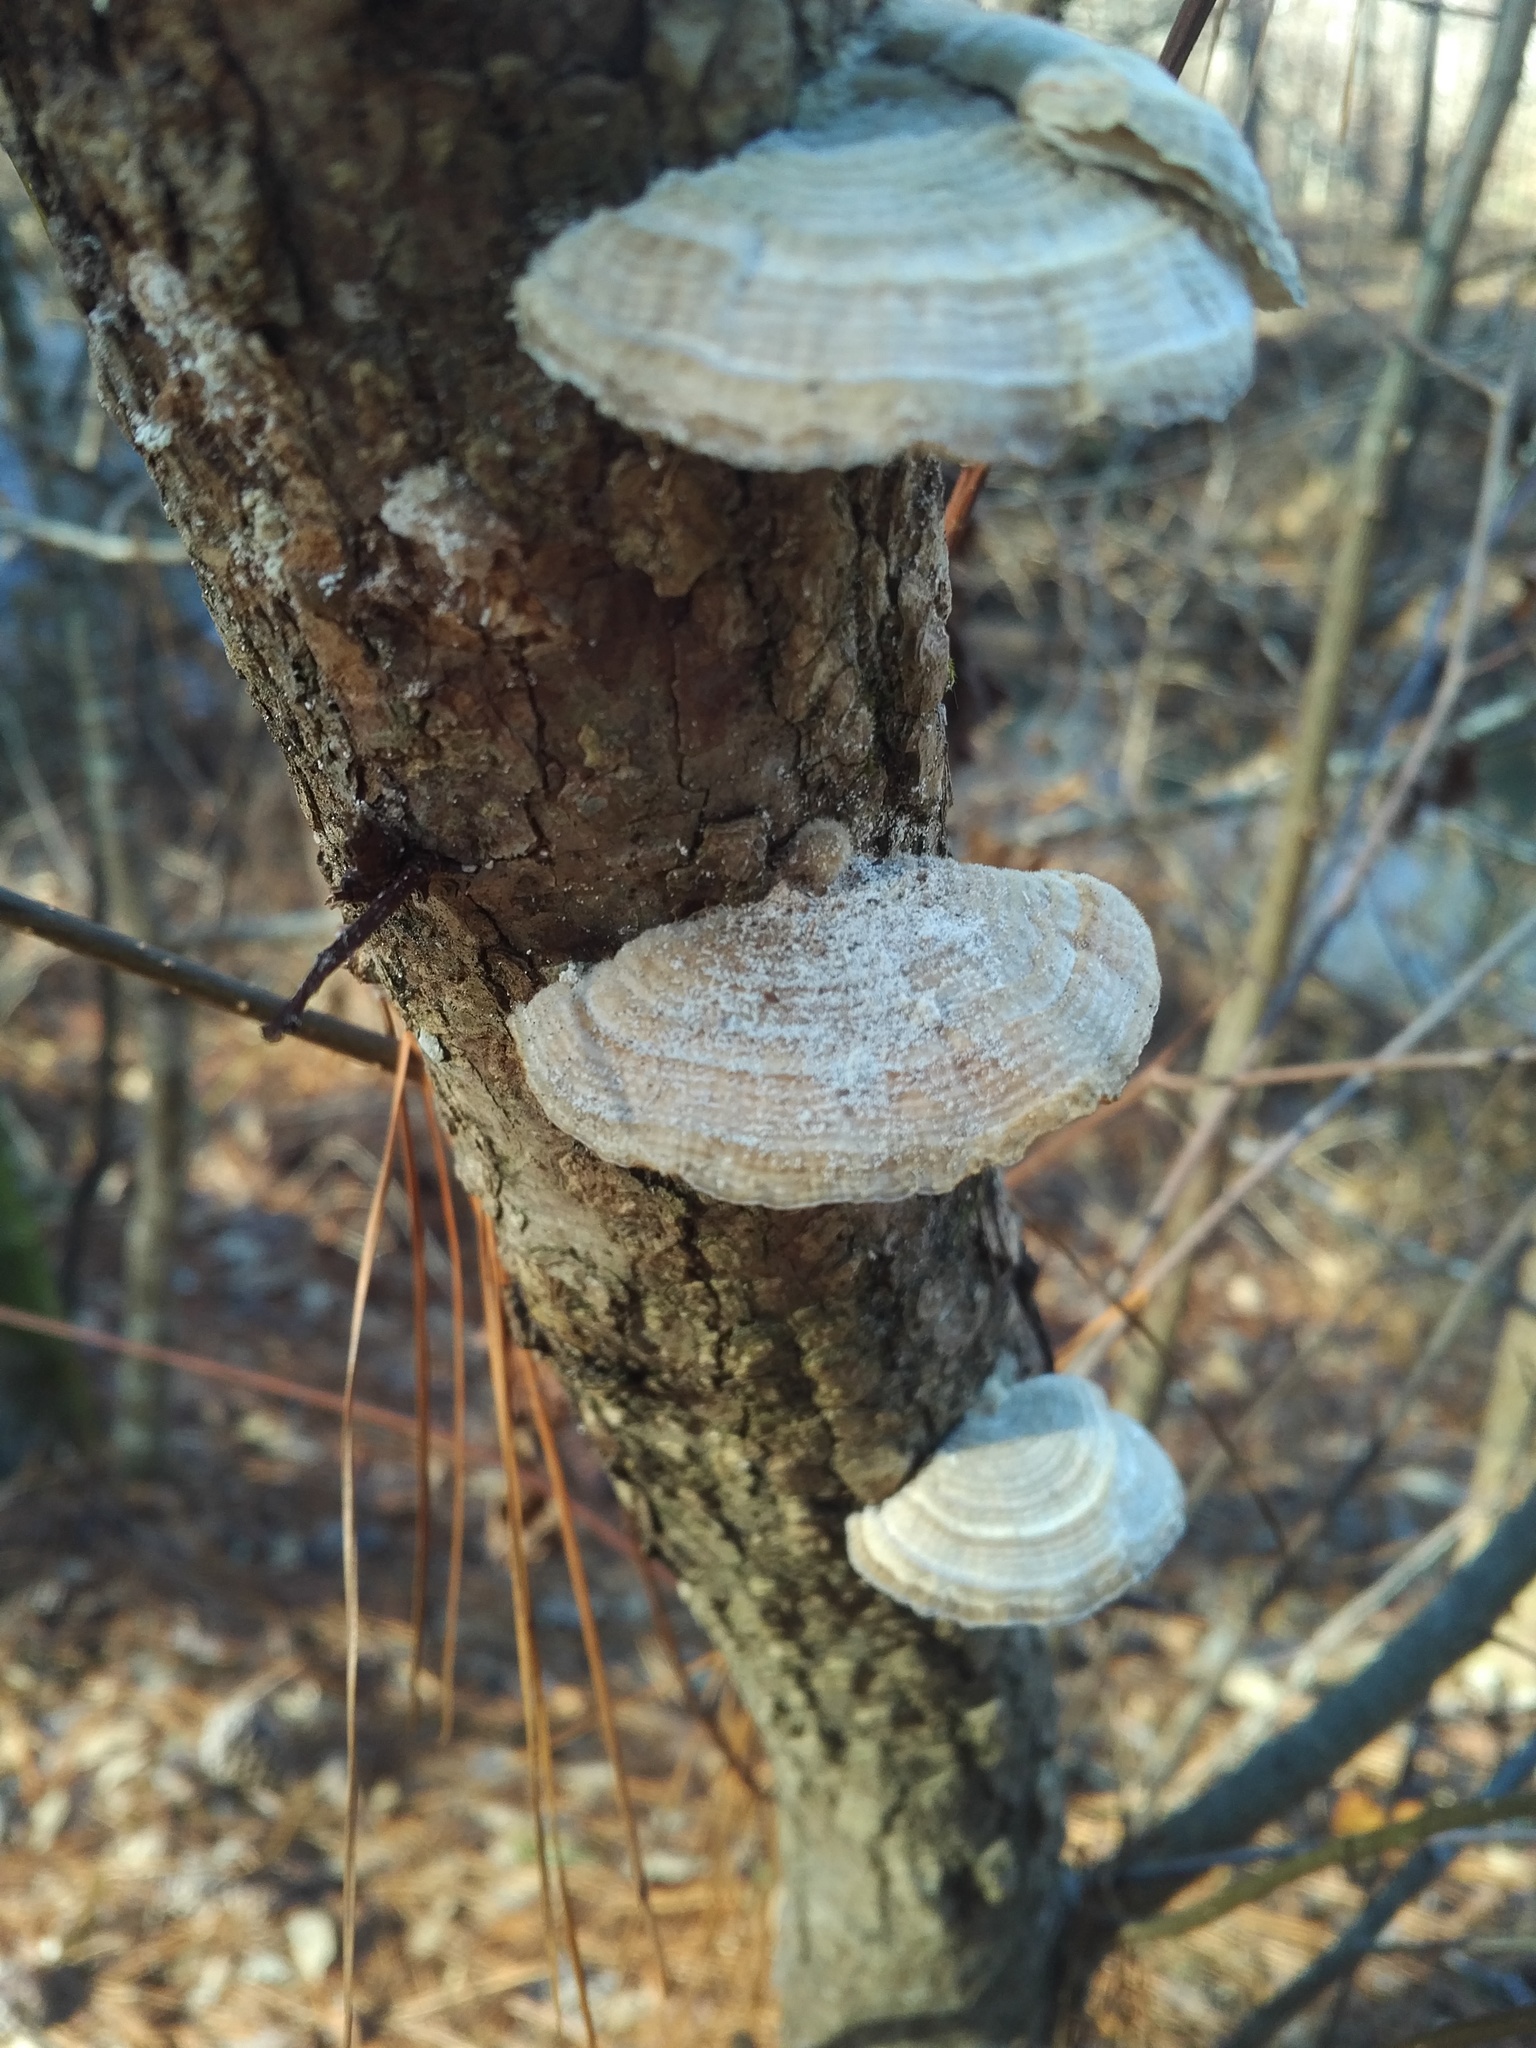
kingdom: Fungi
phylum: Basidiomycota
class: Agaricomycetes
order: Polyporales
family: Polyporaceae
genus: Lenzites
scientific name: Lenzites betulinus
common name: Birch mazegill
